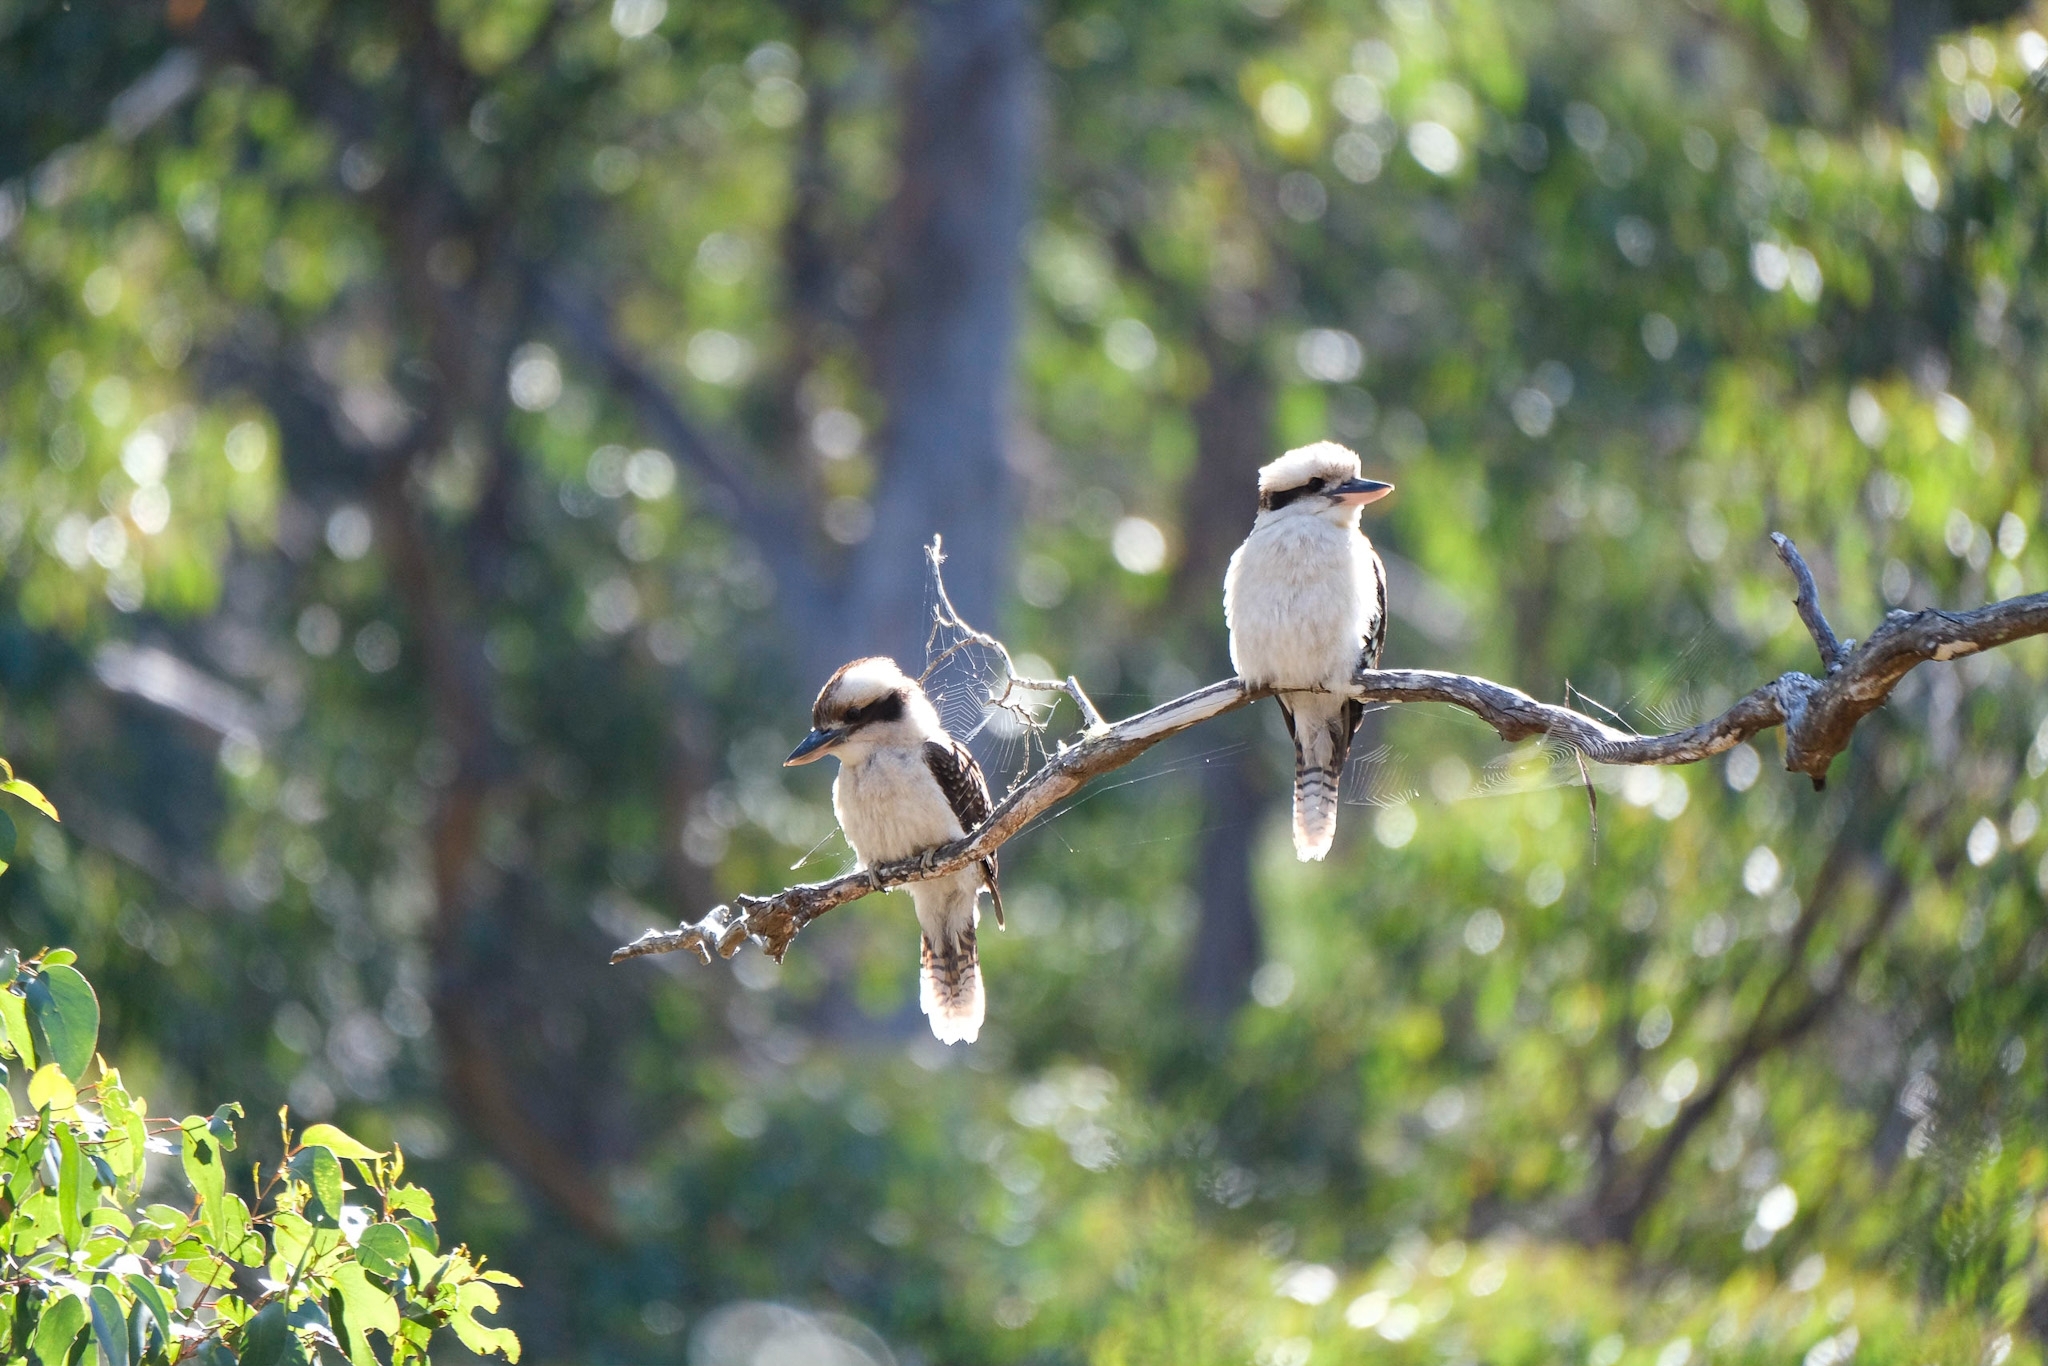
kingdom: Animalia
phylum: Chordata
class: Aves
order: Coraciiformes
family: Alcedinidae
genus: Dacelo
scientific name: Dacelo novaeguineae
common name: Laughing kookaburra
